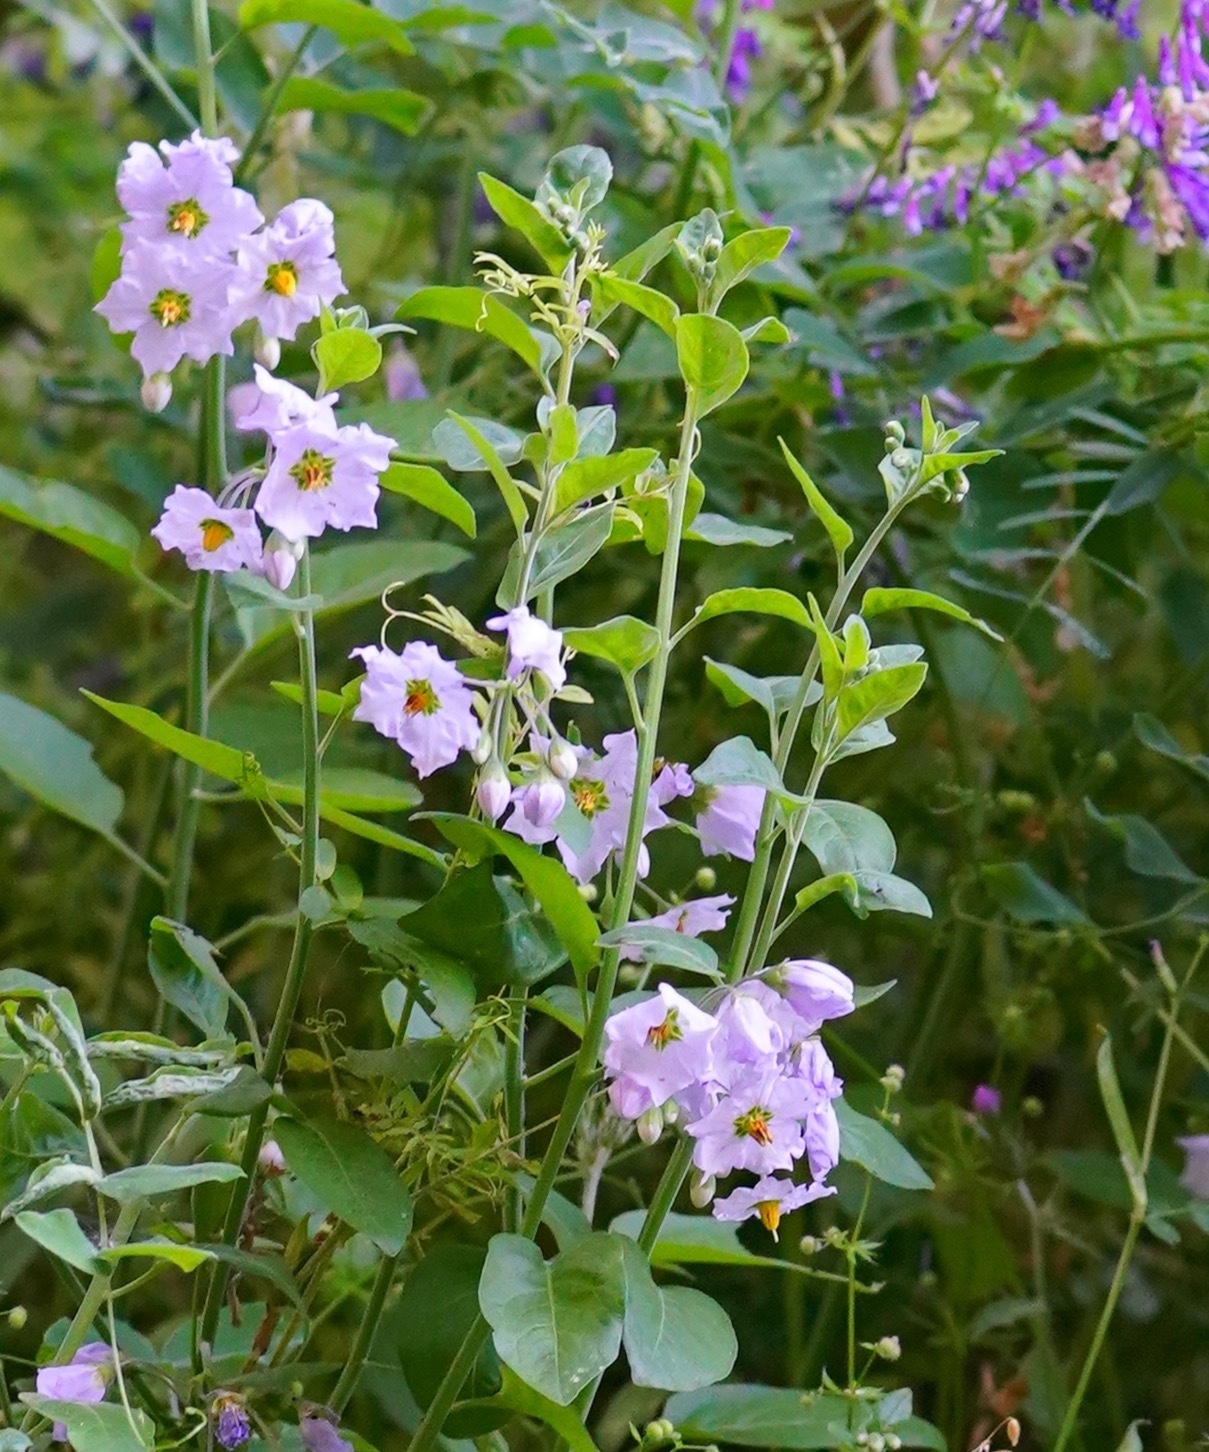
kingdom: Plantae
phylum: Tracheophyta
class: Magnoliopsida
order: Solanales
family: Solanaceae
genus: Solanum
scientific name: Solanum umbelliferum
